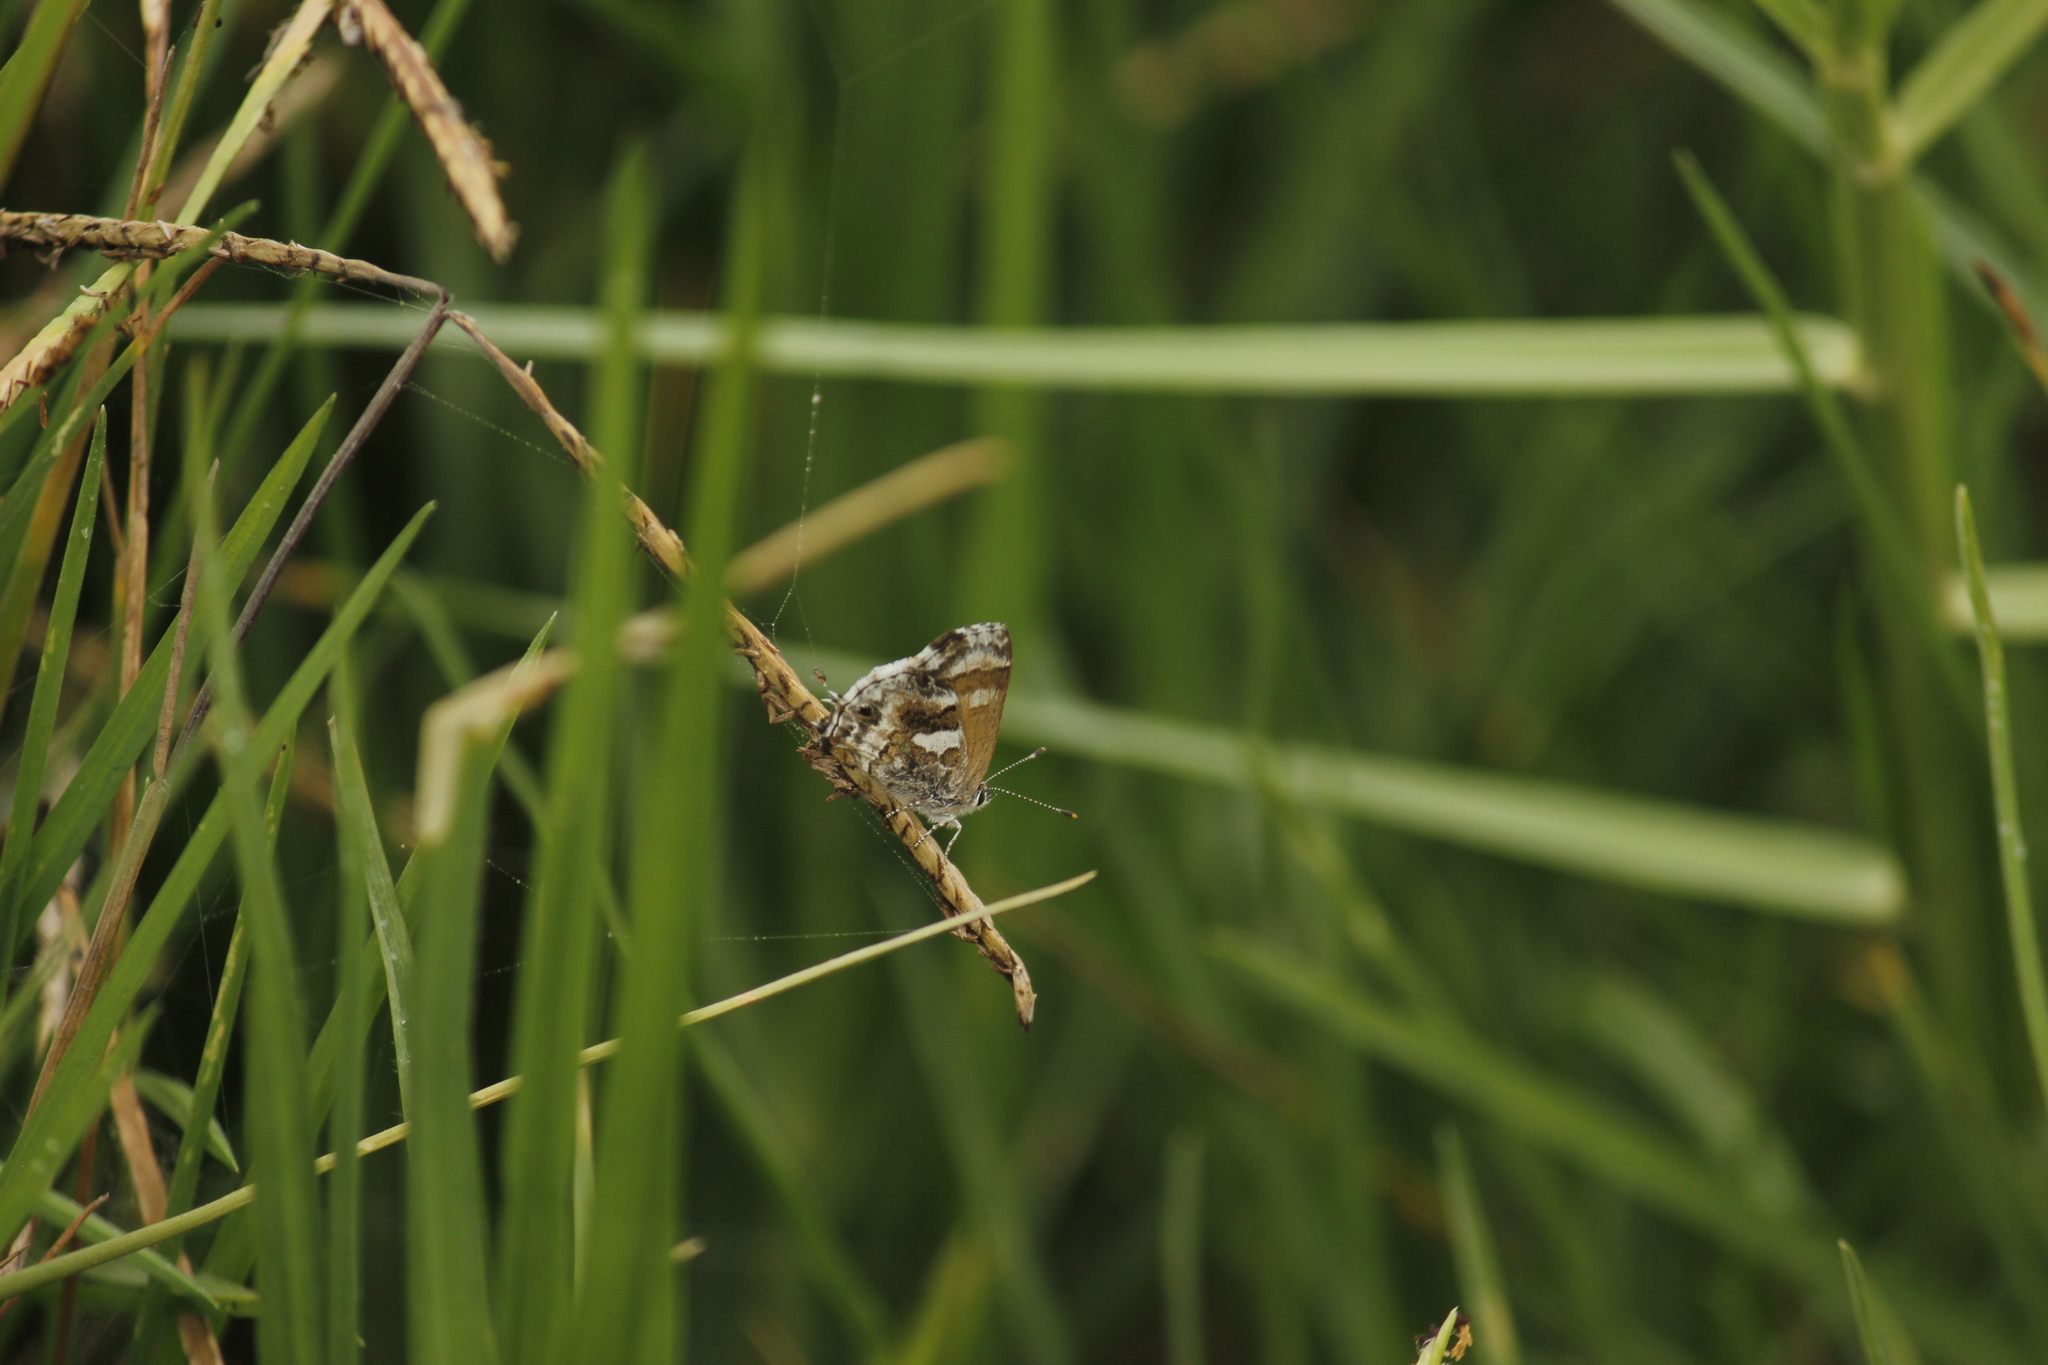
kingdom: Animalia
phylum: Arthropoda
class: Insecta
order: Lepidoptera
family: Lycaenidae
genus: Strymon
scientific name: Strymon
